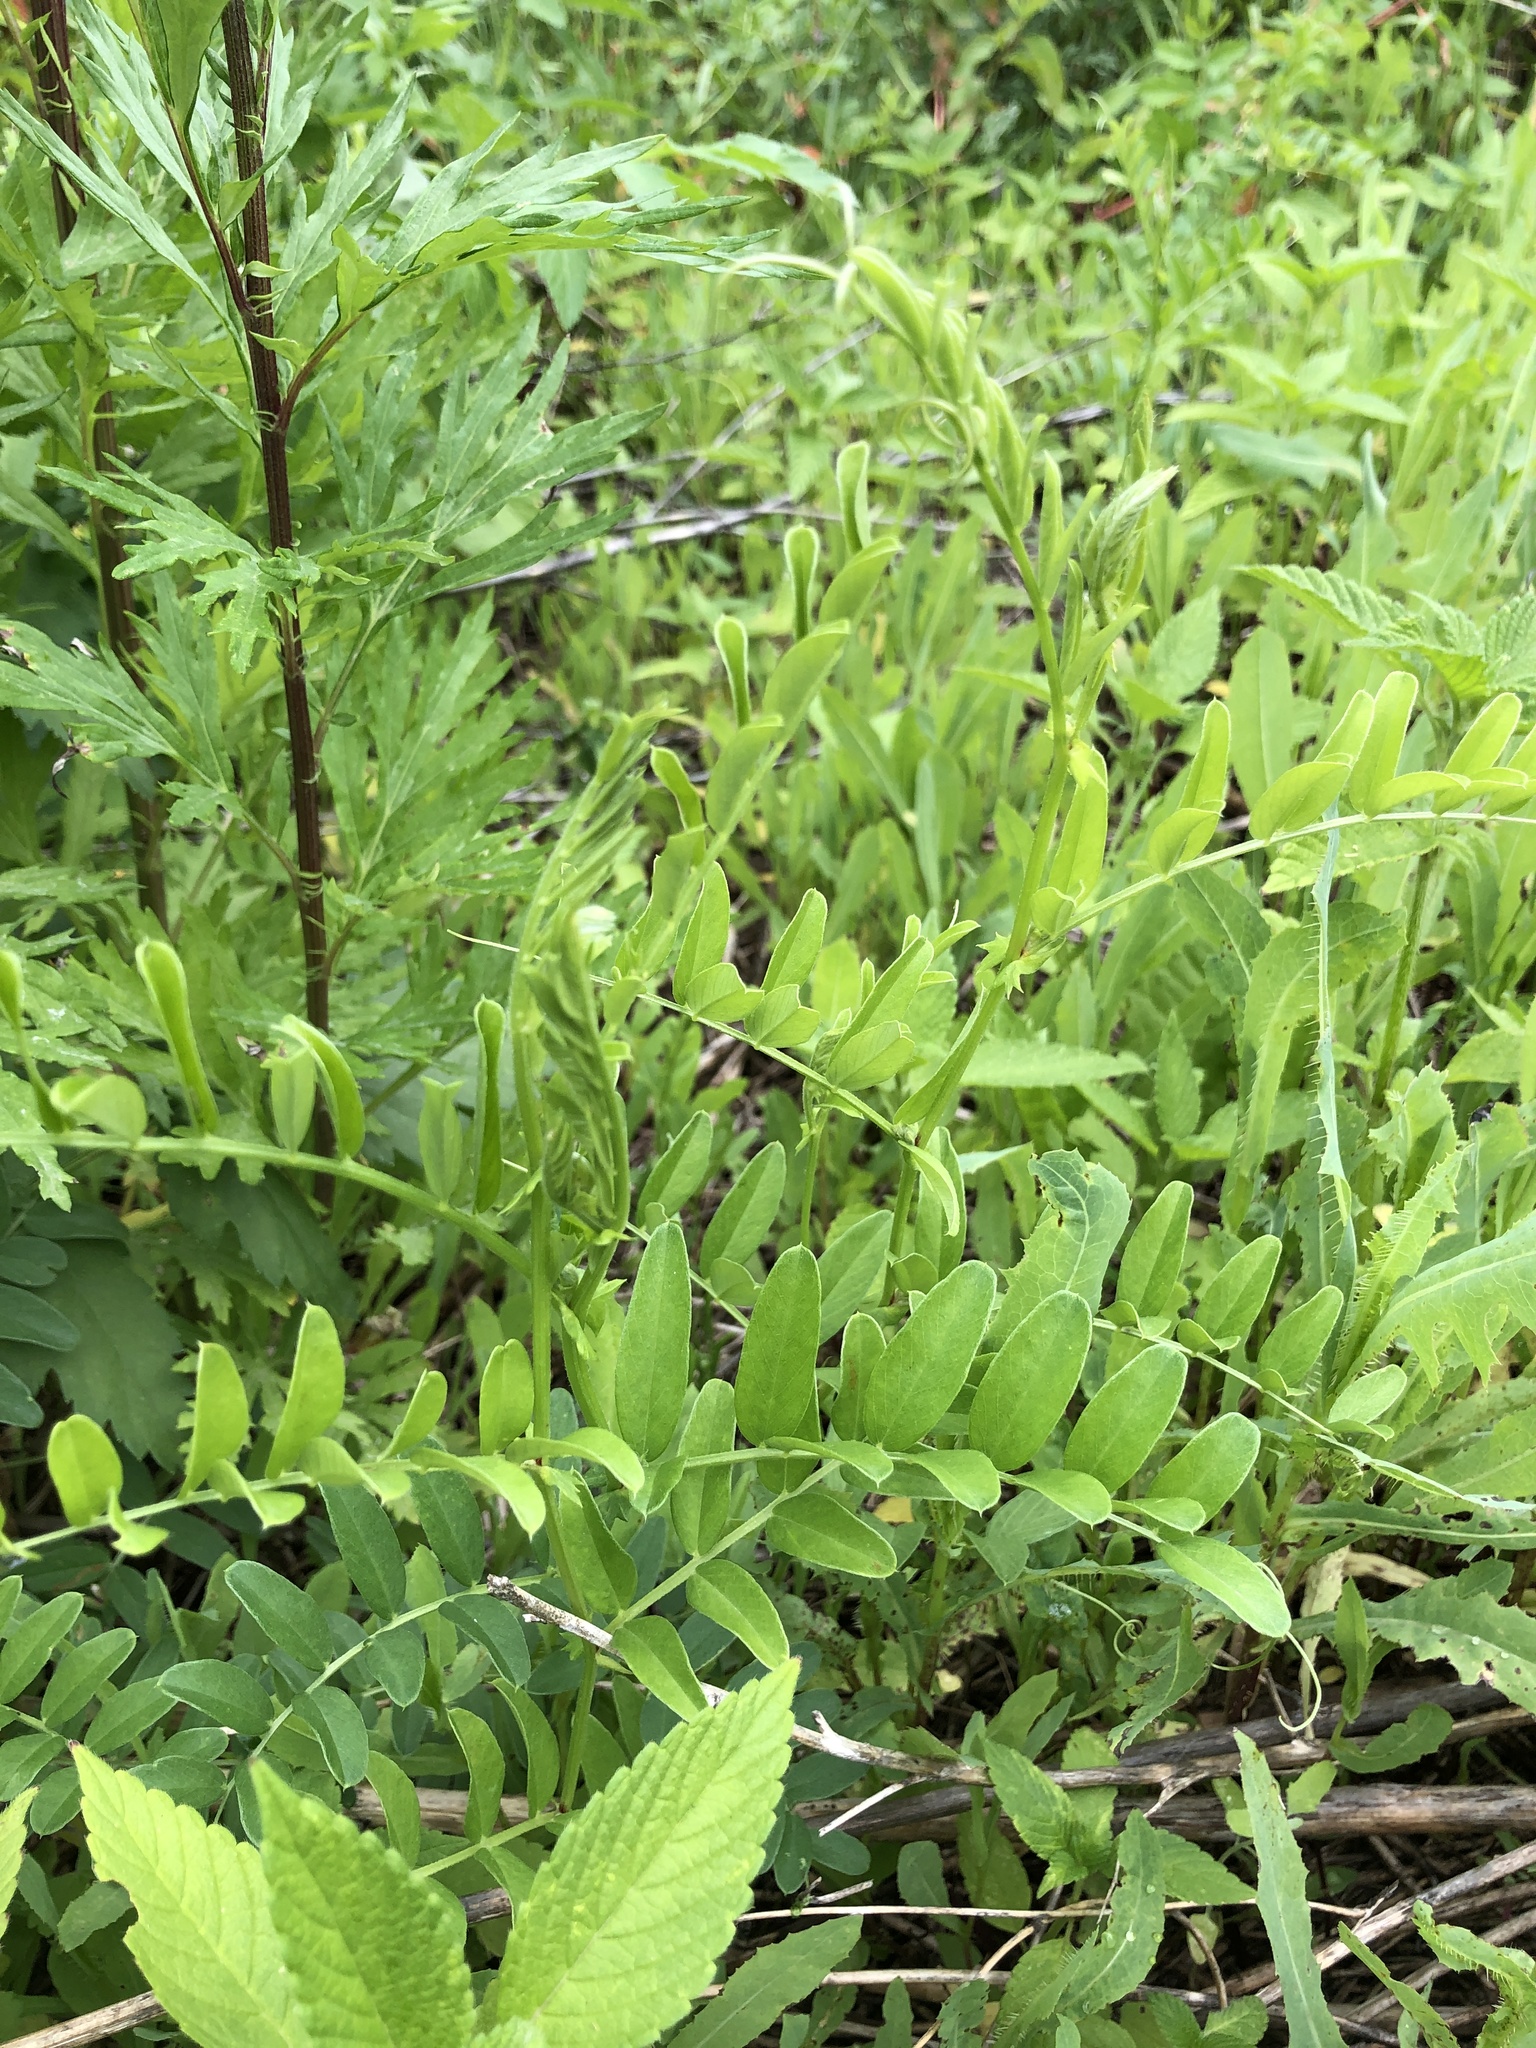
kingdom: Plantae
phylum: Tracheophyta
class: Magnoliopsida
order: Fabales
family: Fabaceae
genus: Vicia
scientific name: Vicia amoena
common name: Cheder ebs
